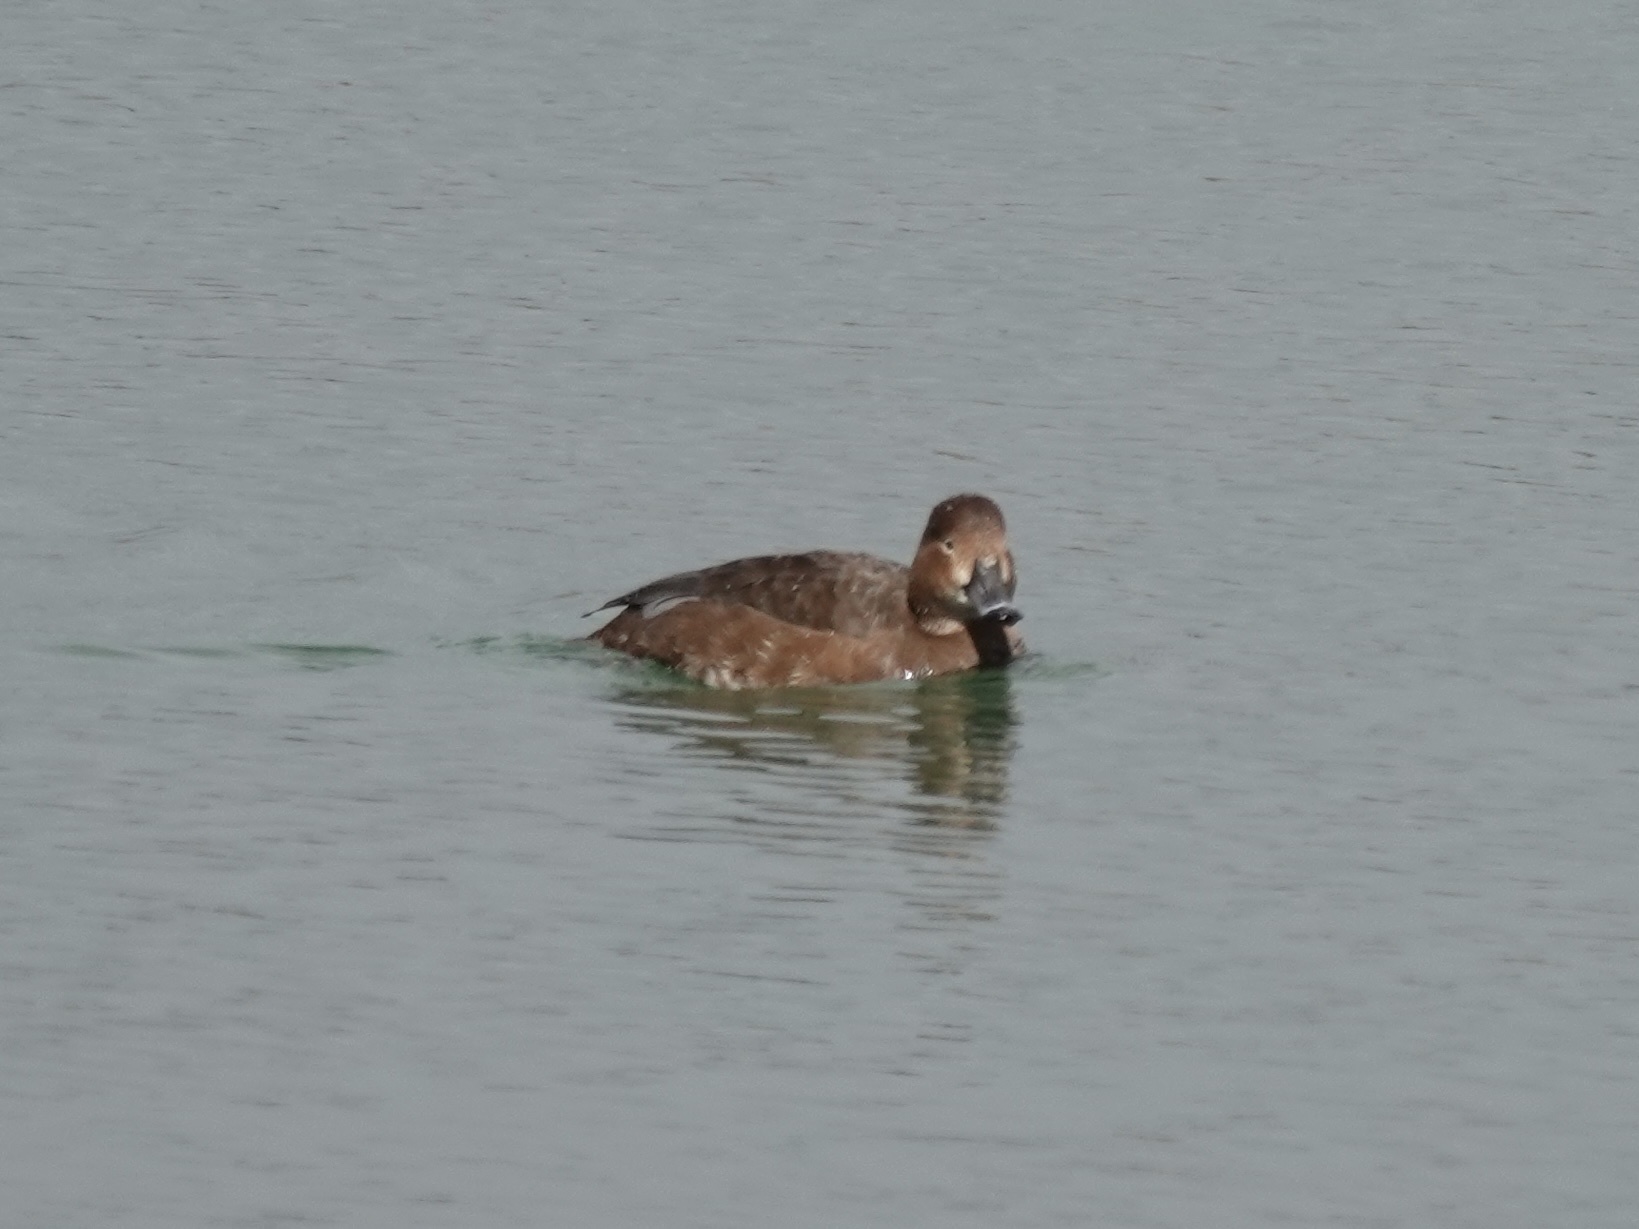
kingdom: Animalia
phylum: Chordata
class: Aves
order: Anseriformes
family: Anatidae
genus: Aythya
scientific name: Aythya americana
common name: Redhead
